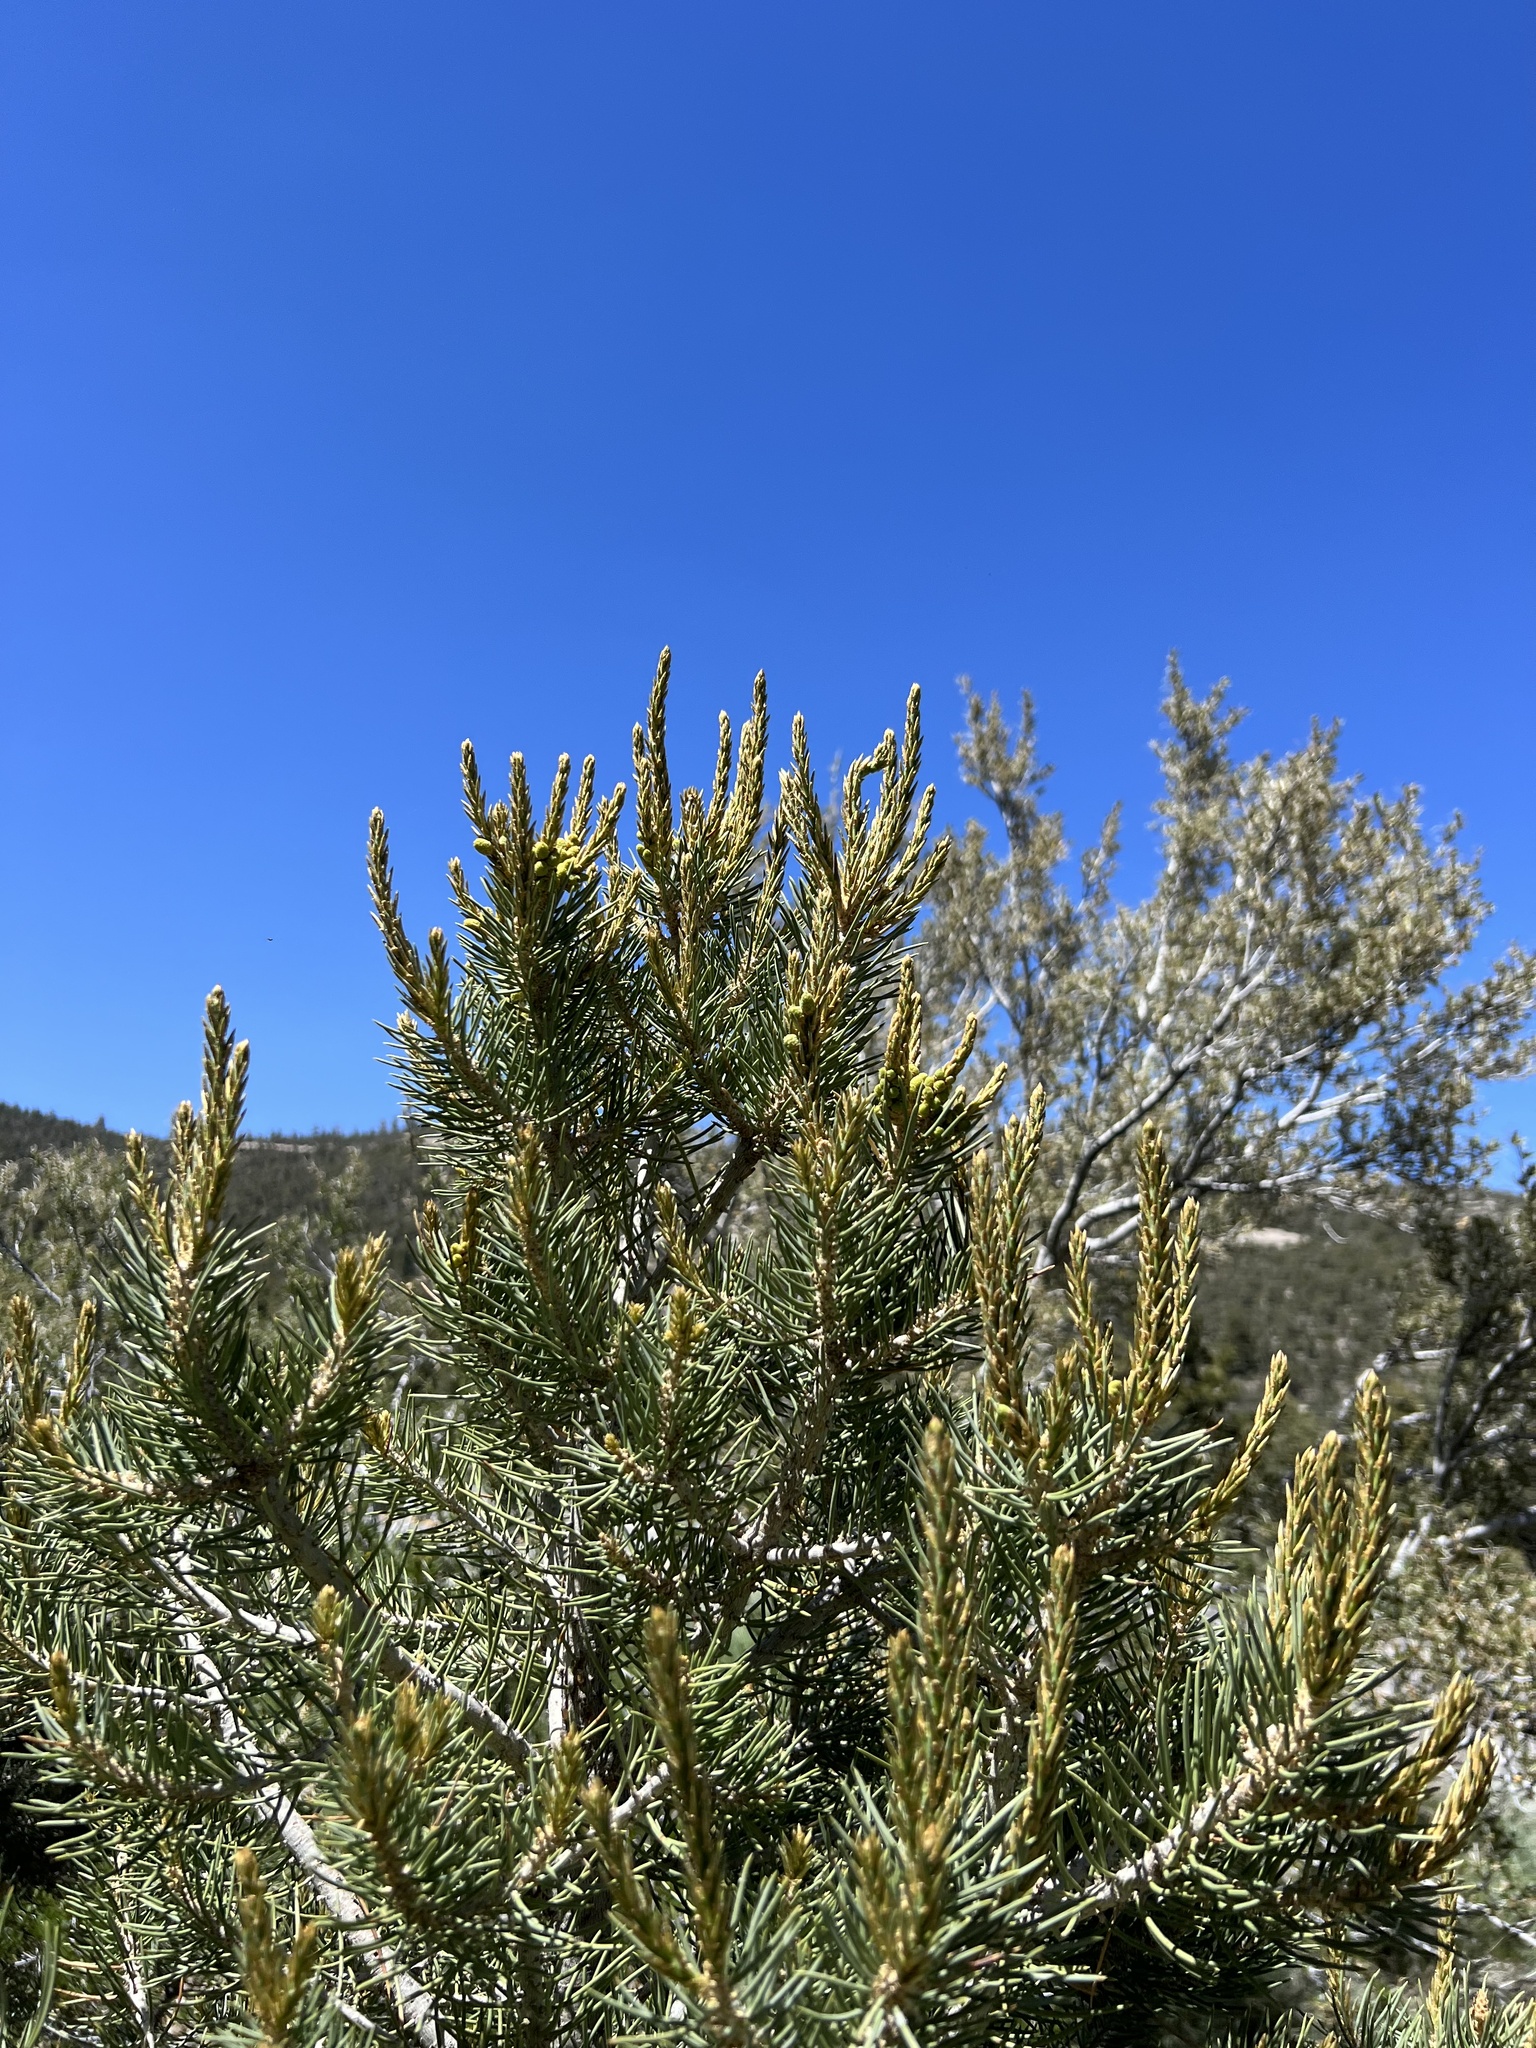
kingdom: Plantae
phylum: Tracheophyta
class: Pinopsida
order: Pinales
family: Pinaceae
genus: Pinus
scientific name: Pinus monophylla
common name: One-leaved nut pine
